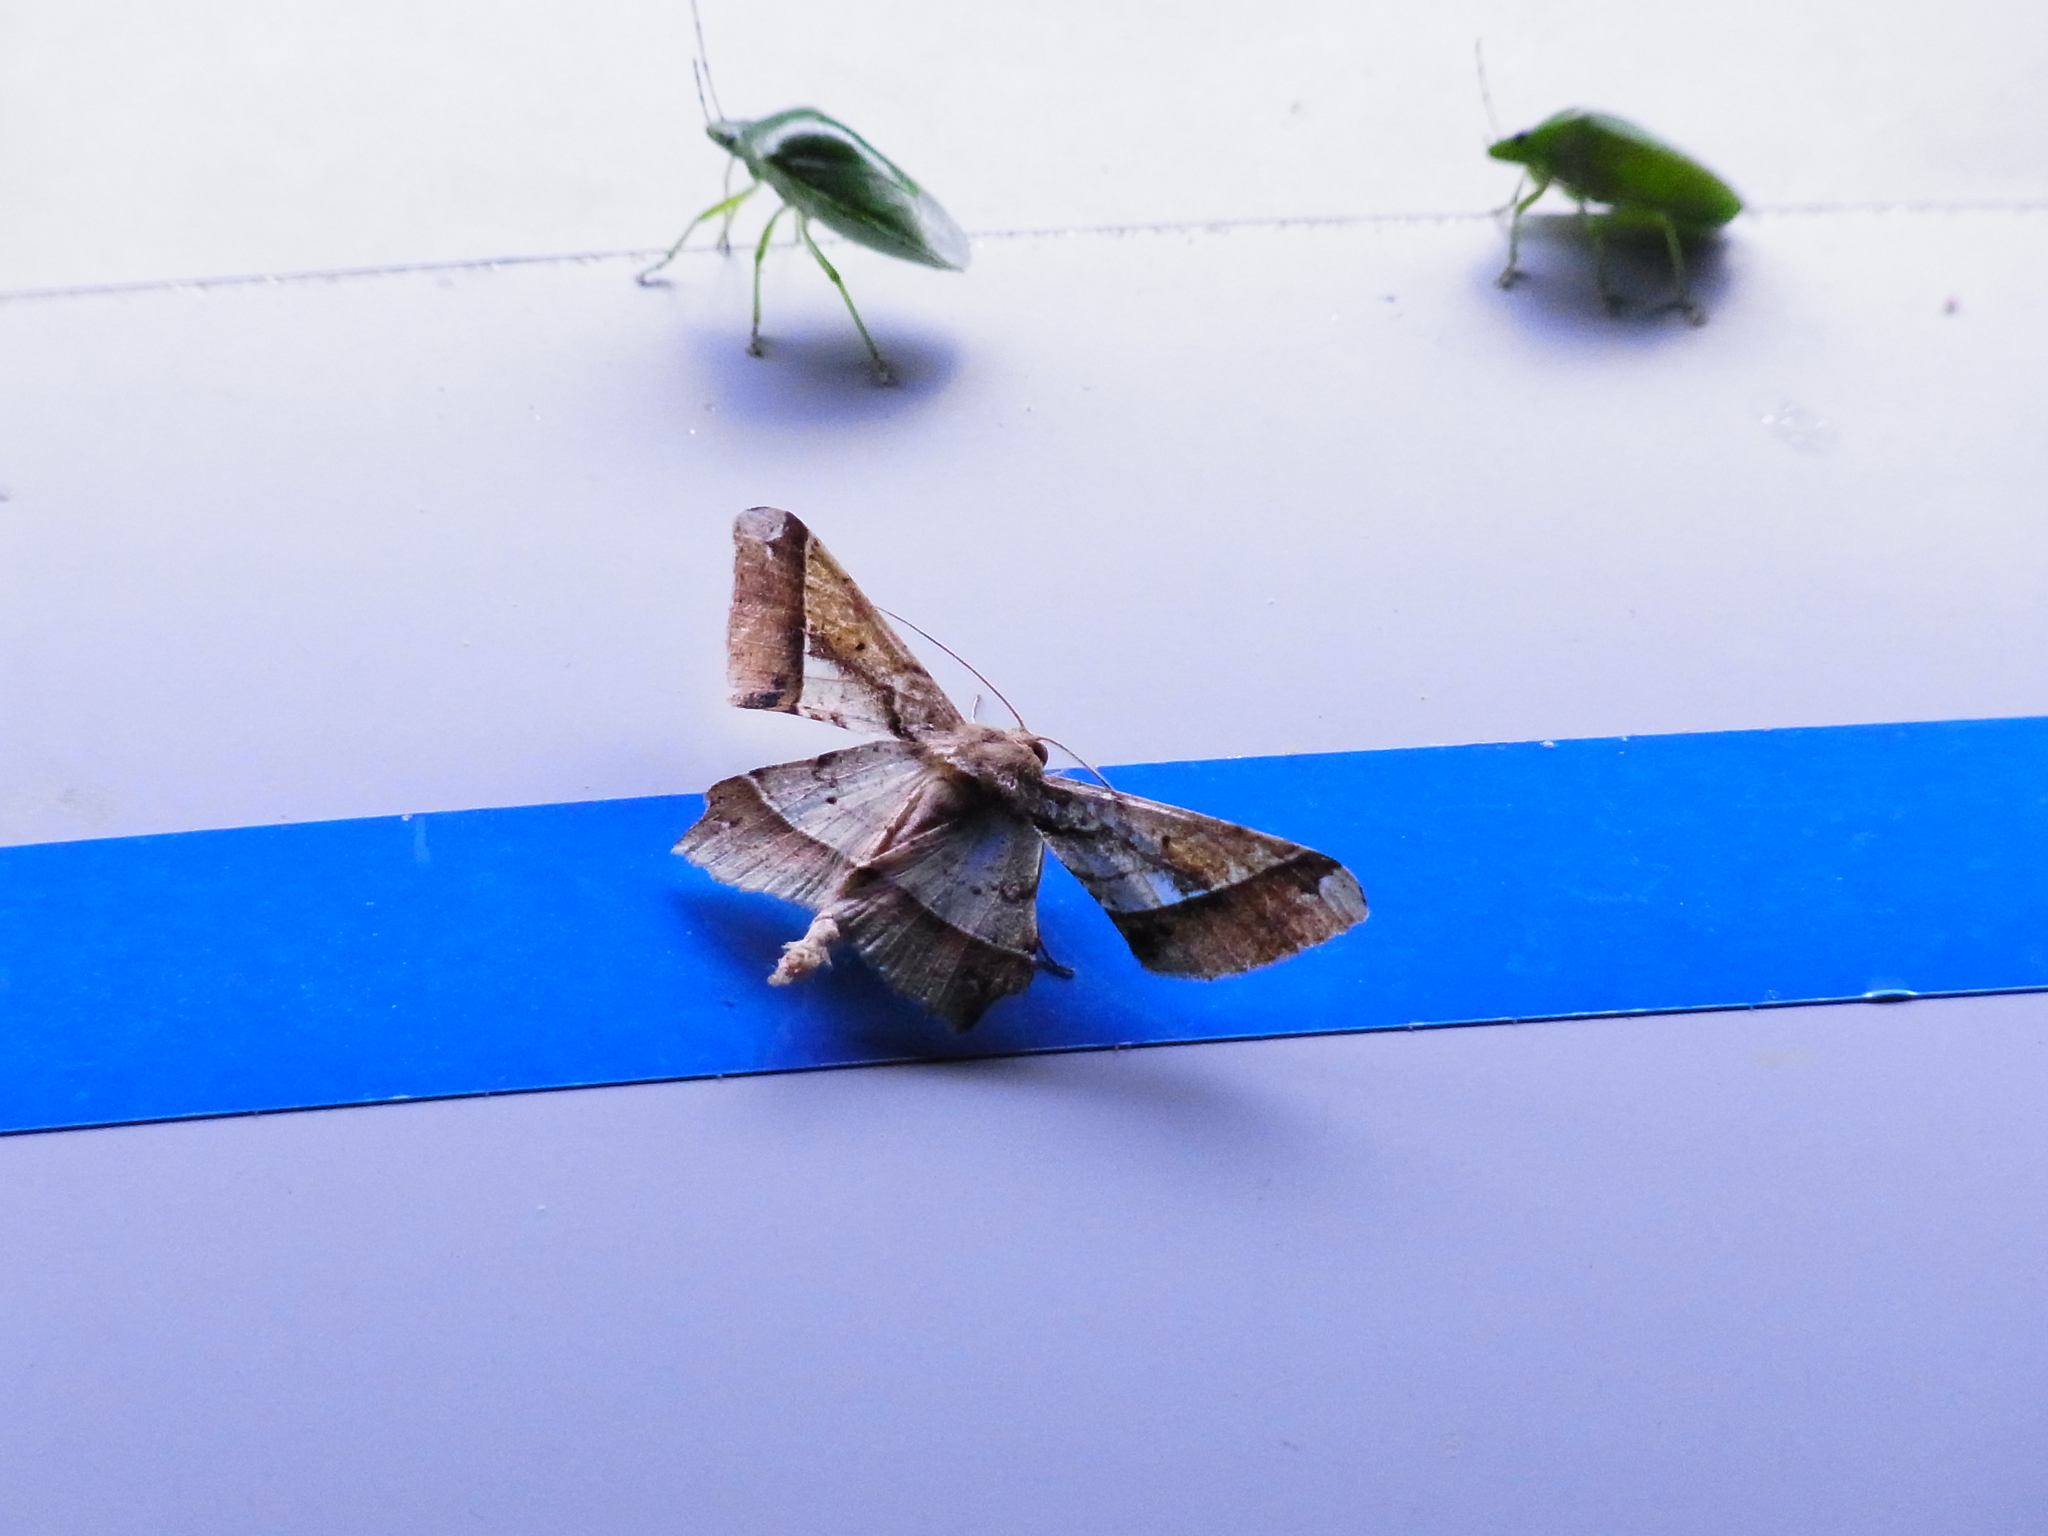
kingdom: Animalia
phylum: Arthropoda
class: Insecta
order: Lepidoptera
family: Geometridae
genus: Krananda
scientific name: Krananda latimarginaria
